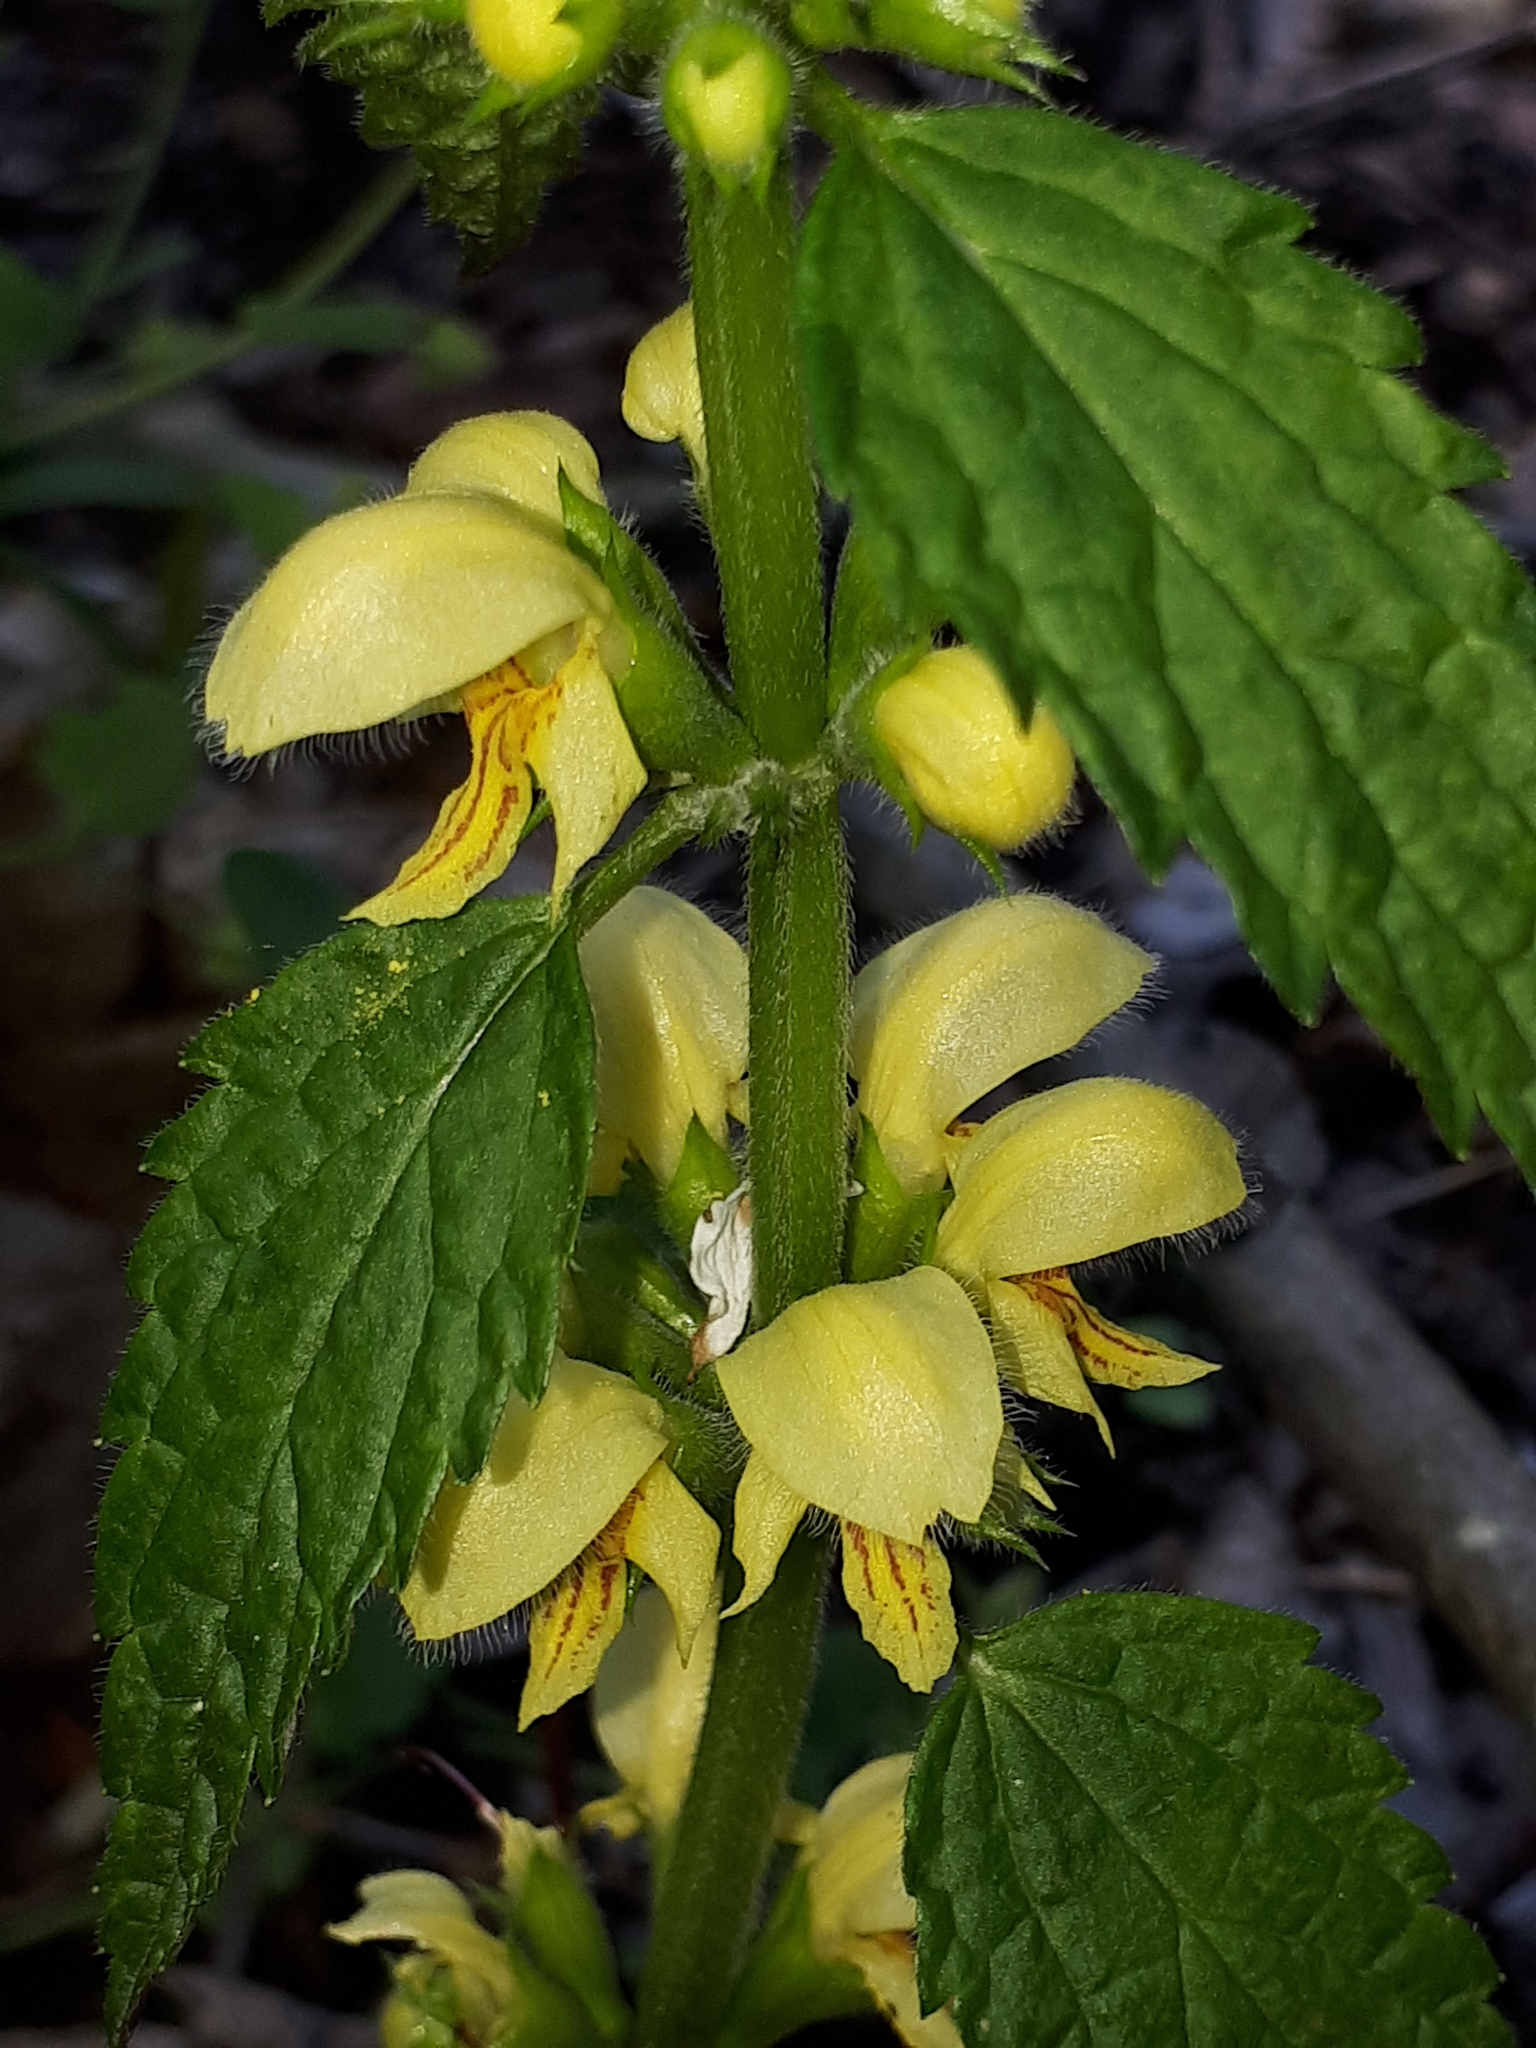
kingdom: Plantae
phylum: Tracheophyta
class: Magnoliopsida
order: Lamiales
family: Lamiaceae
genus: Lamium
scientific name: Lamium galeobdolon
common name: Yellow archangel
